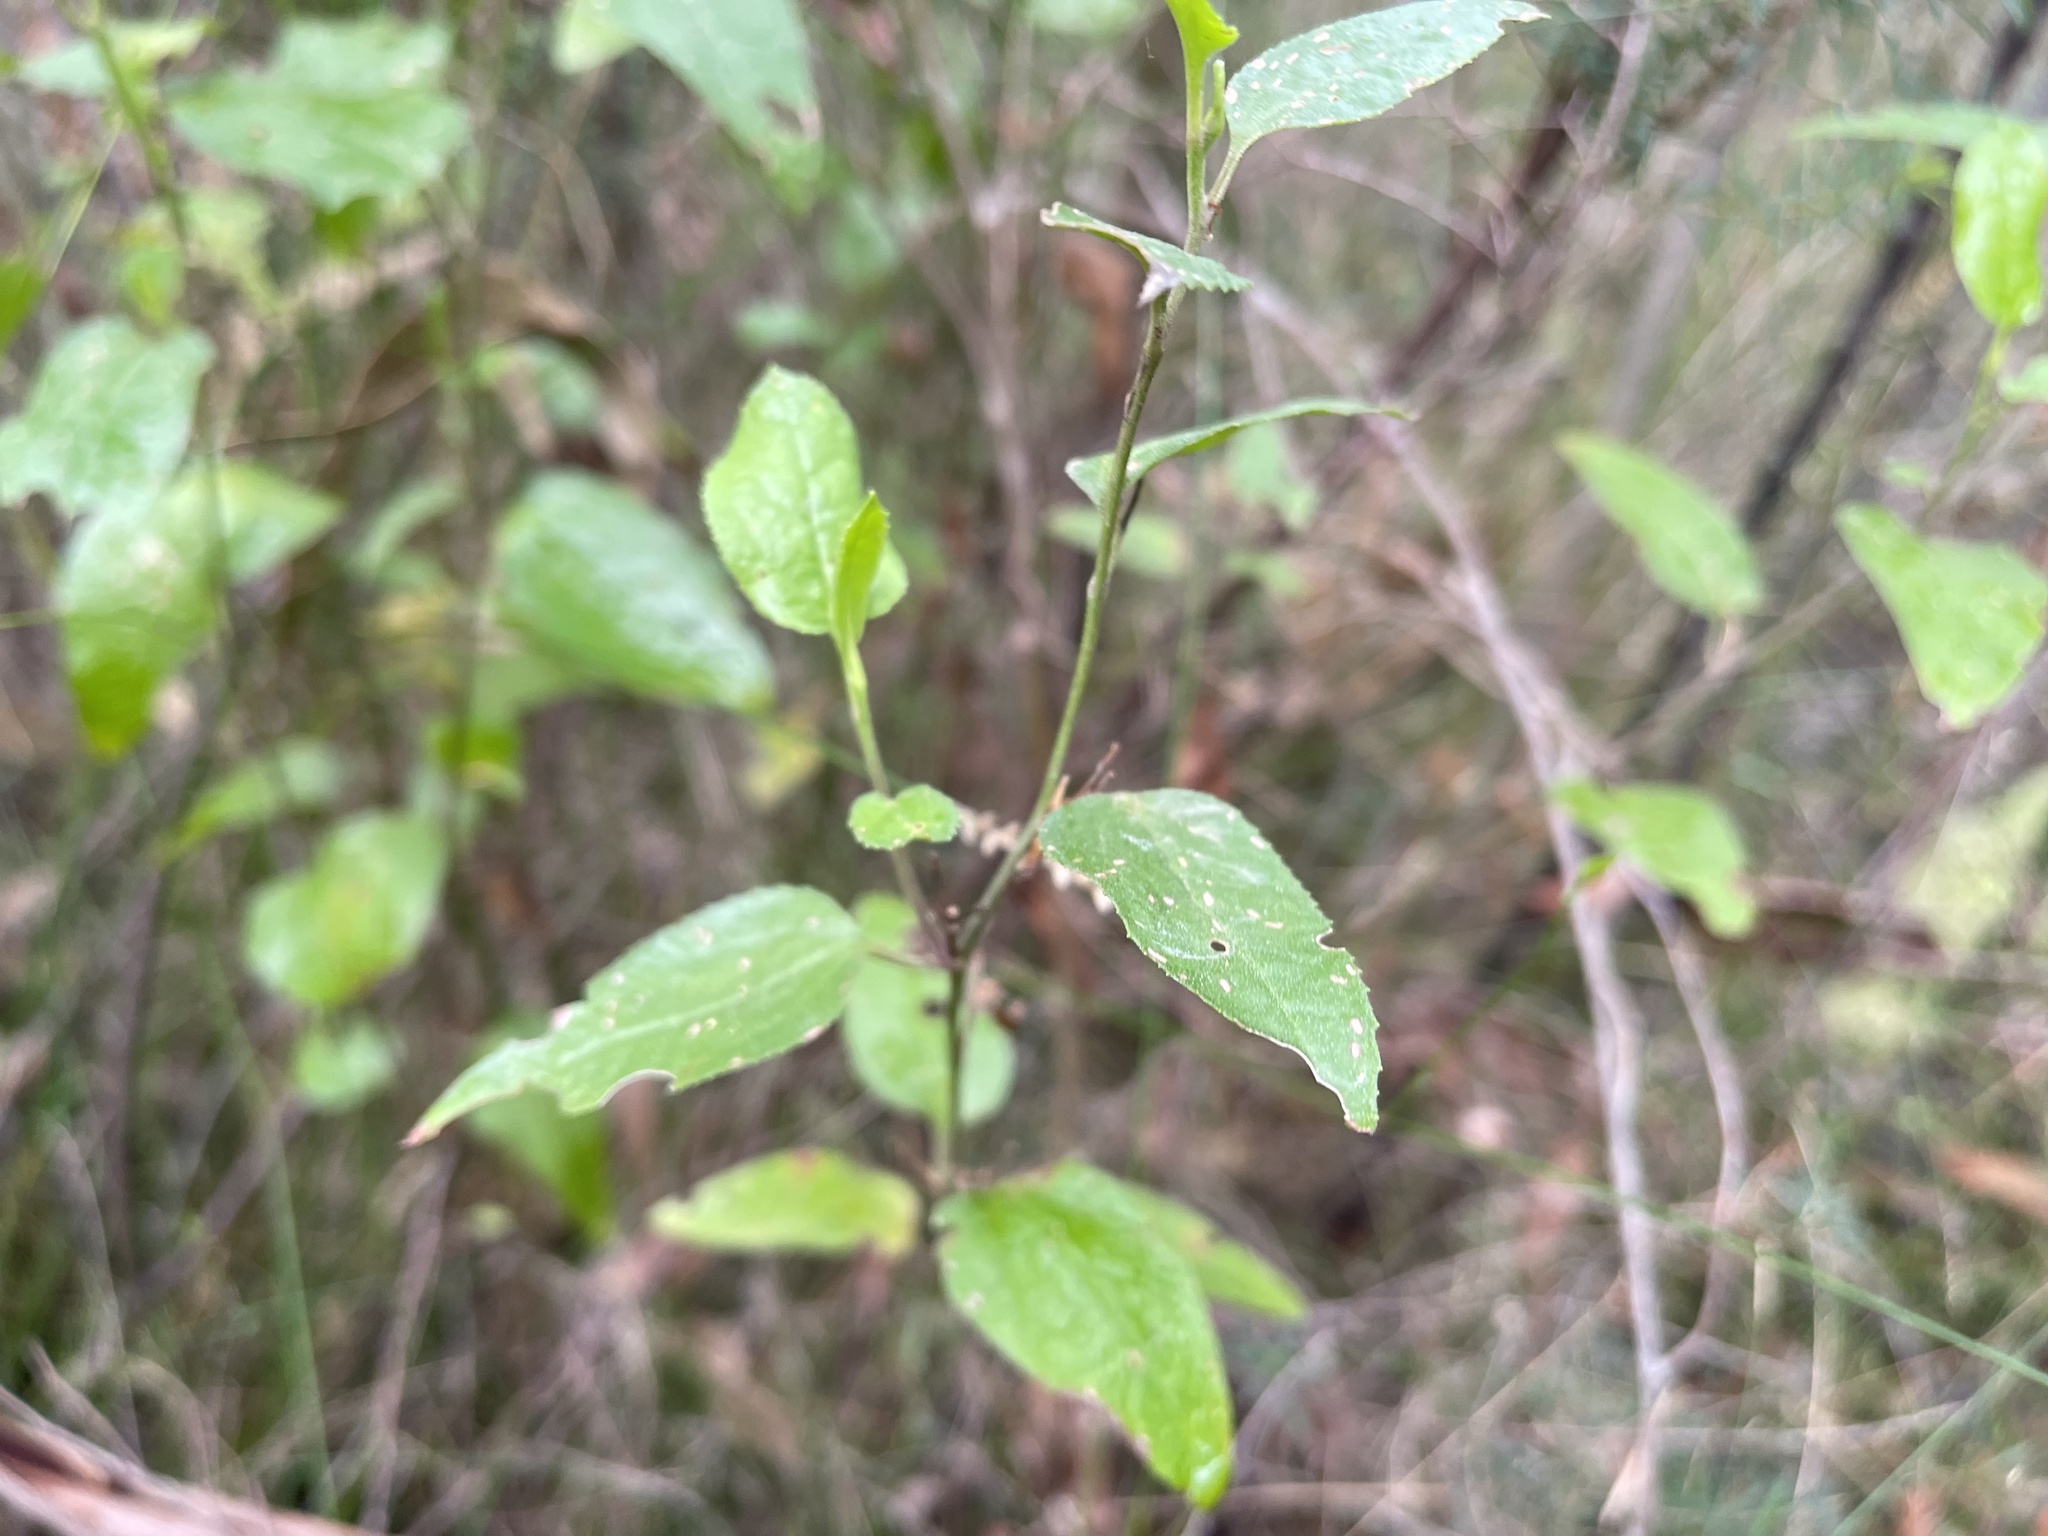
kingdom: Plantae
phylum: Tracheophyta
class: Magnoliopsida
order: Asterales
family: Goodeniaceae
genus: Goodenia
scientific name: Goodenia ovata
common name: Hop goodenia
